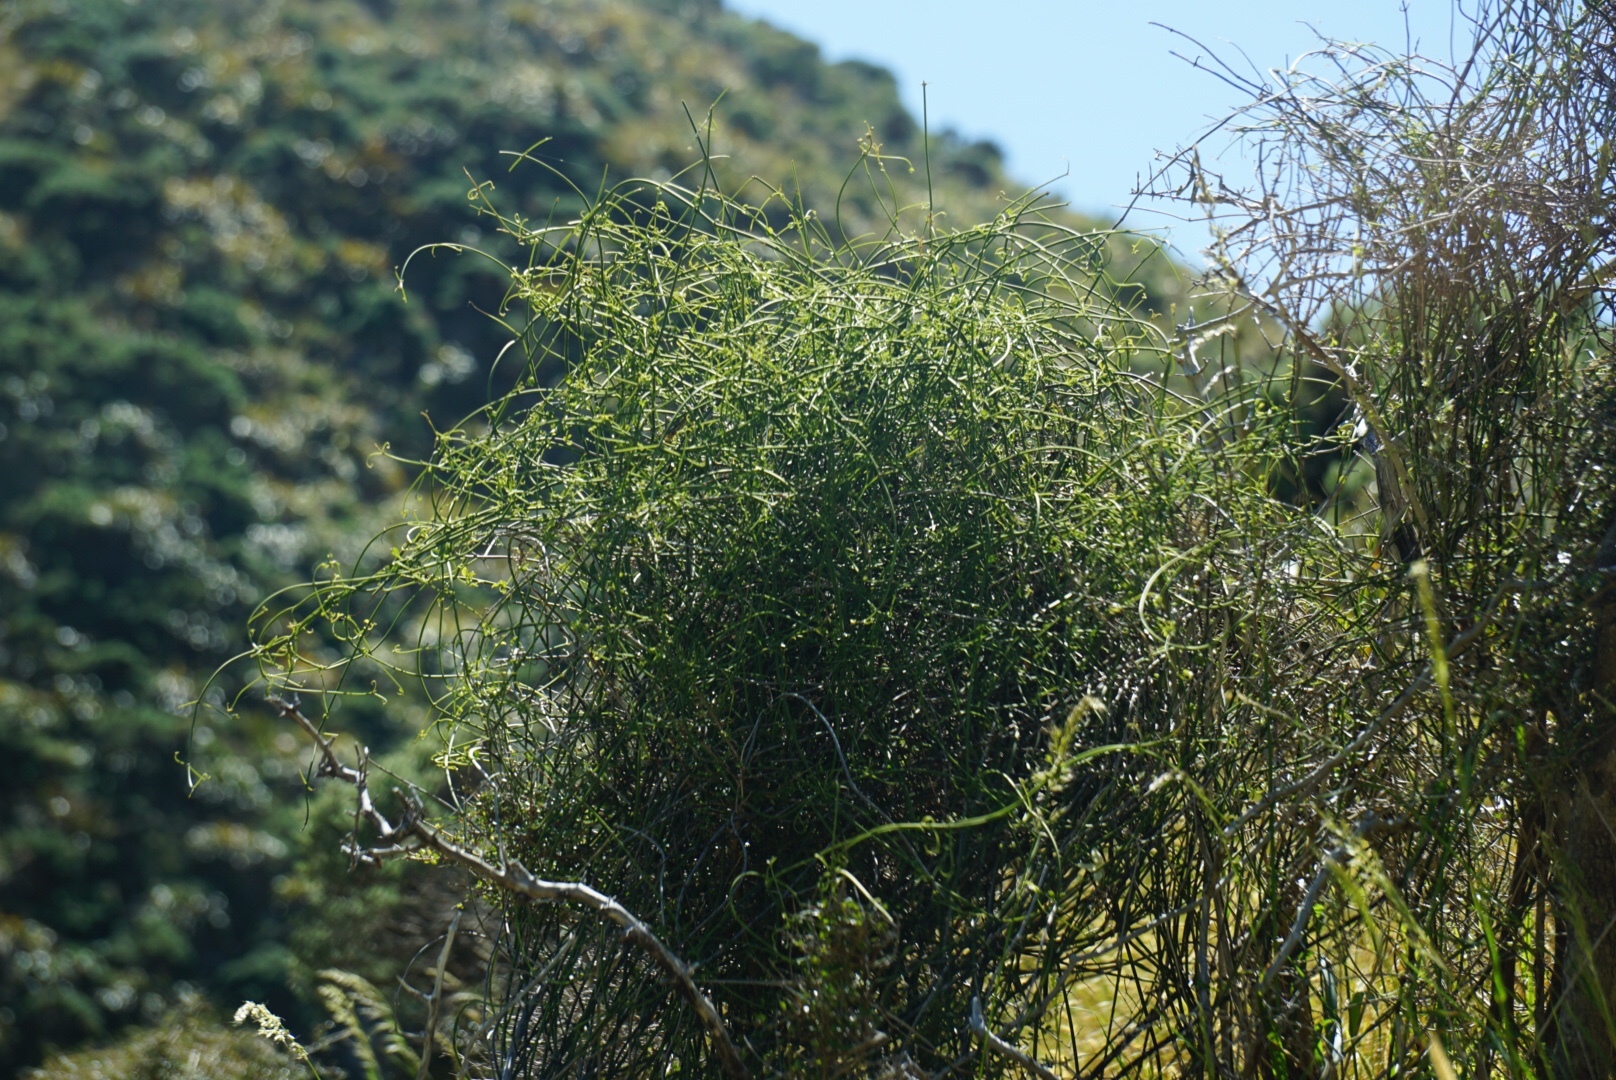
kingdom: Plantae
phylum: Tracheophyta
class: Magnoliopsida
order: Ranunculales
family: Ranunculaceae
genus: Clematis
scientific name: Clematis afoliata
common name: Rush-stem clematis
